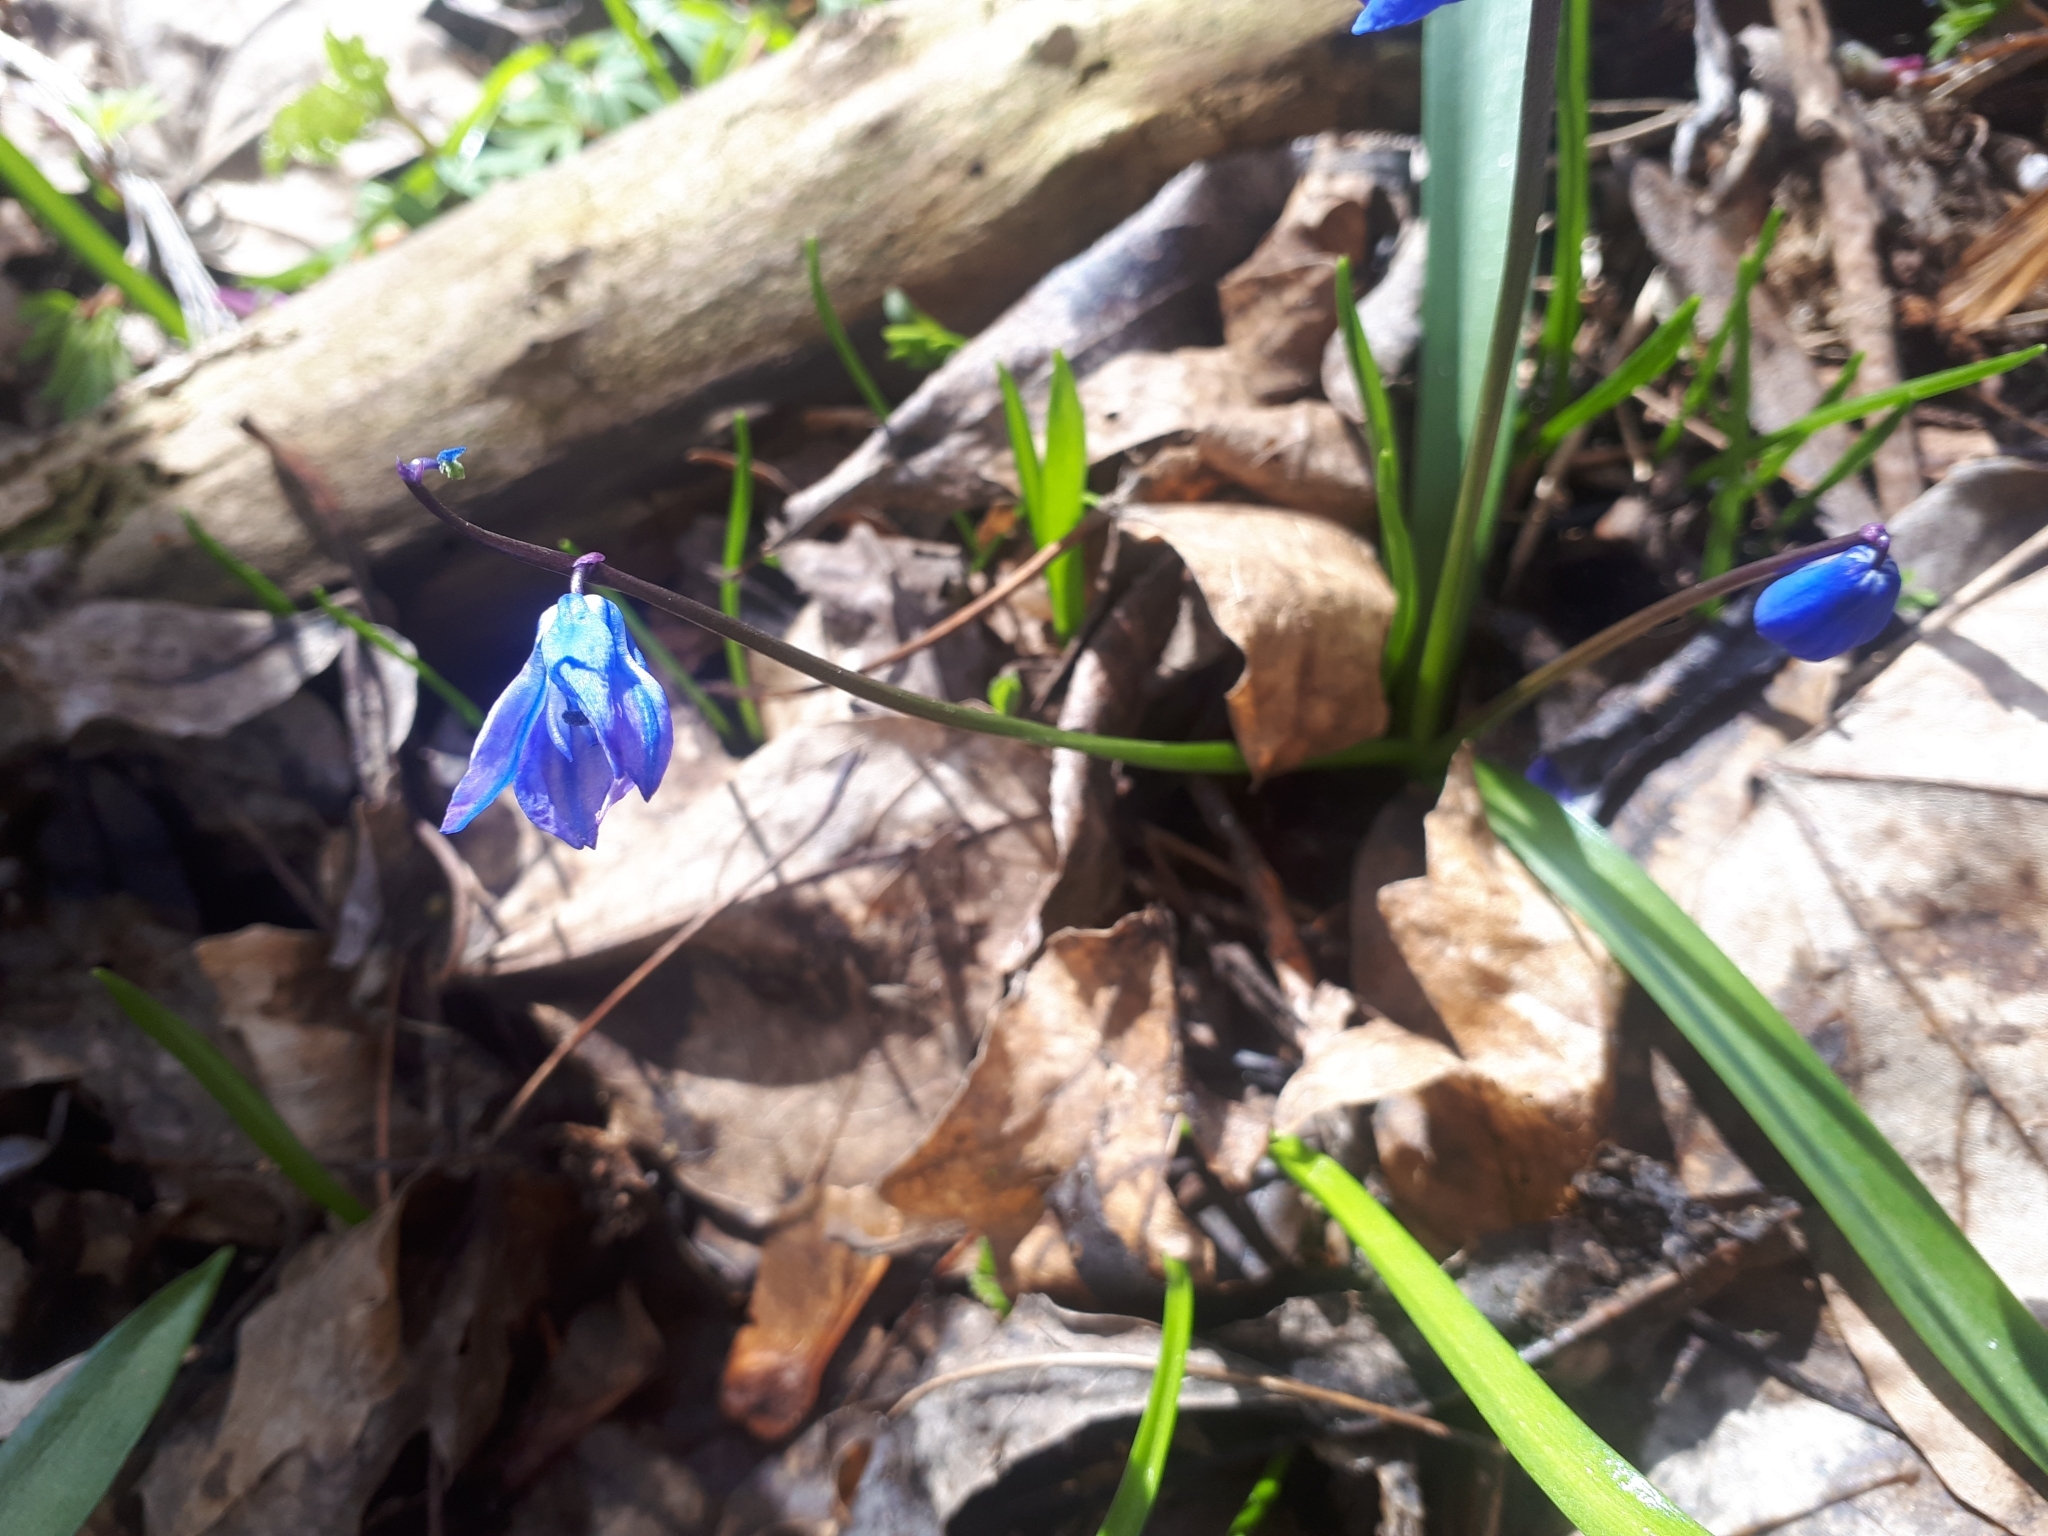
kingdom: Plantae
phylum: Tracheophyta
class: Liliopsida
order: Asparagales
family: Asparagaceae
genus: Scilla
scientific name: Scilla siberica
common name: Siberian squill
